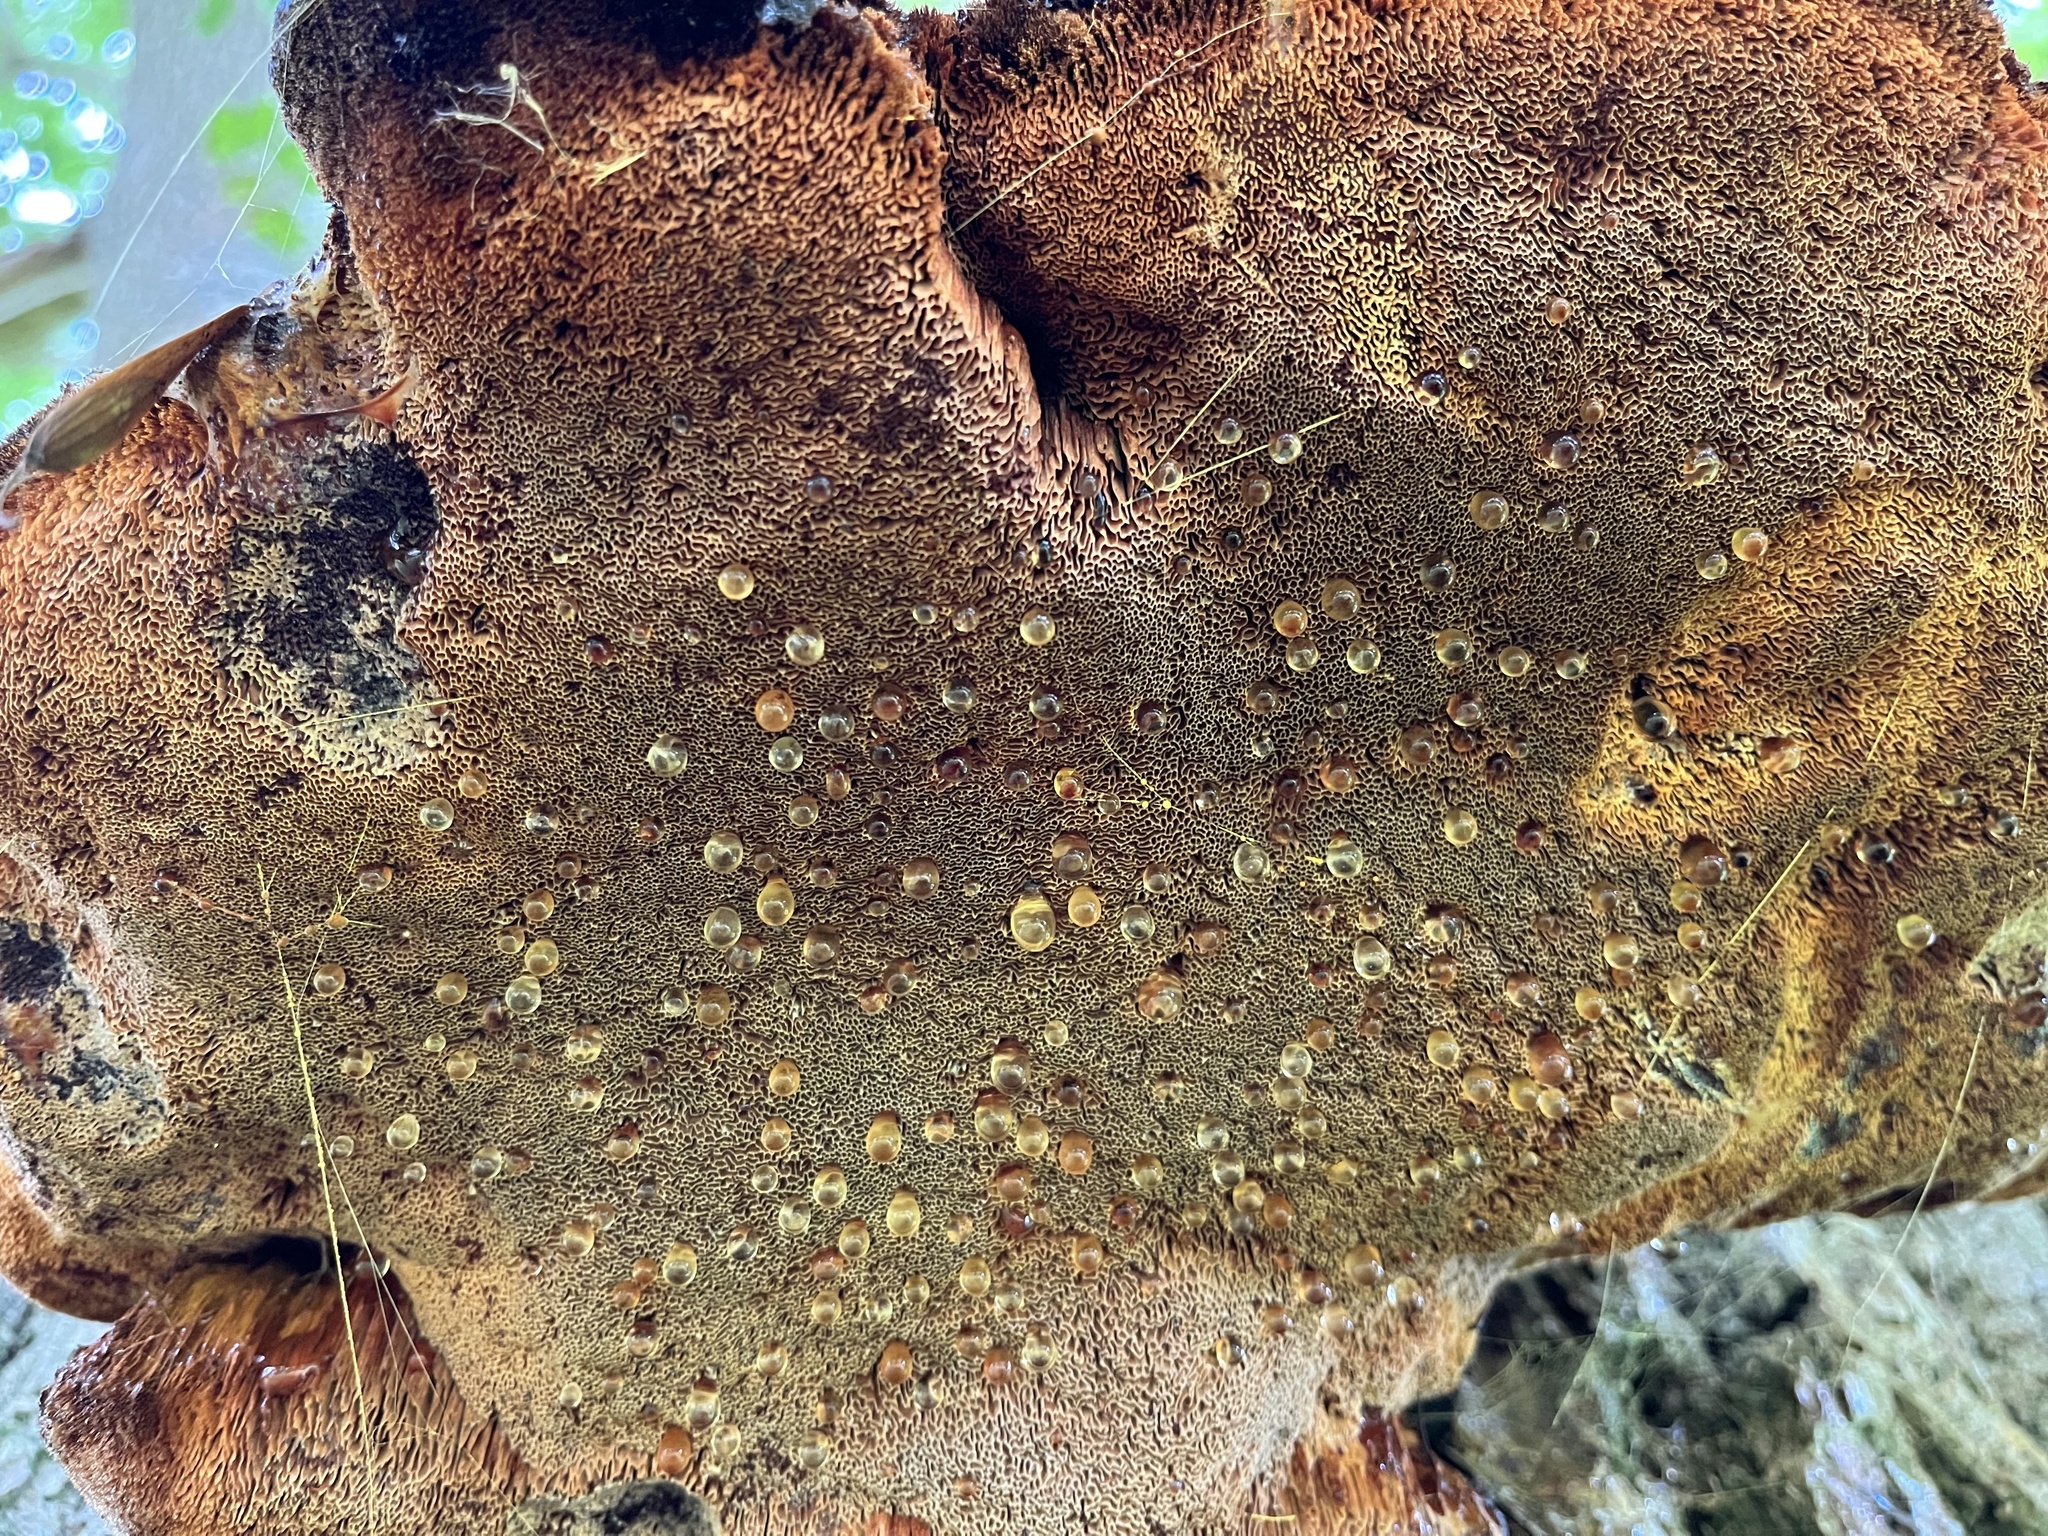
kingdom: Fungi
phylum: Basidiomycota
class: Agaricomycetes
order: Hymenochaetales
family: Hymenochaetaceae
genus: Inonotus
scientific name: Inonotus hispidus
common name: Shaggy bracket
